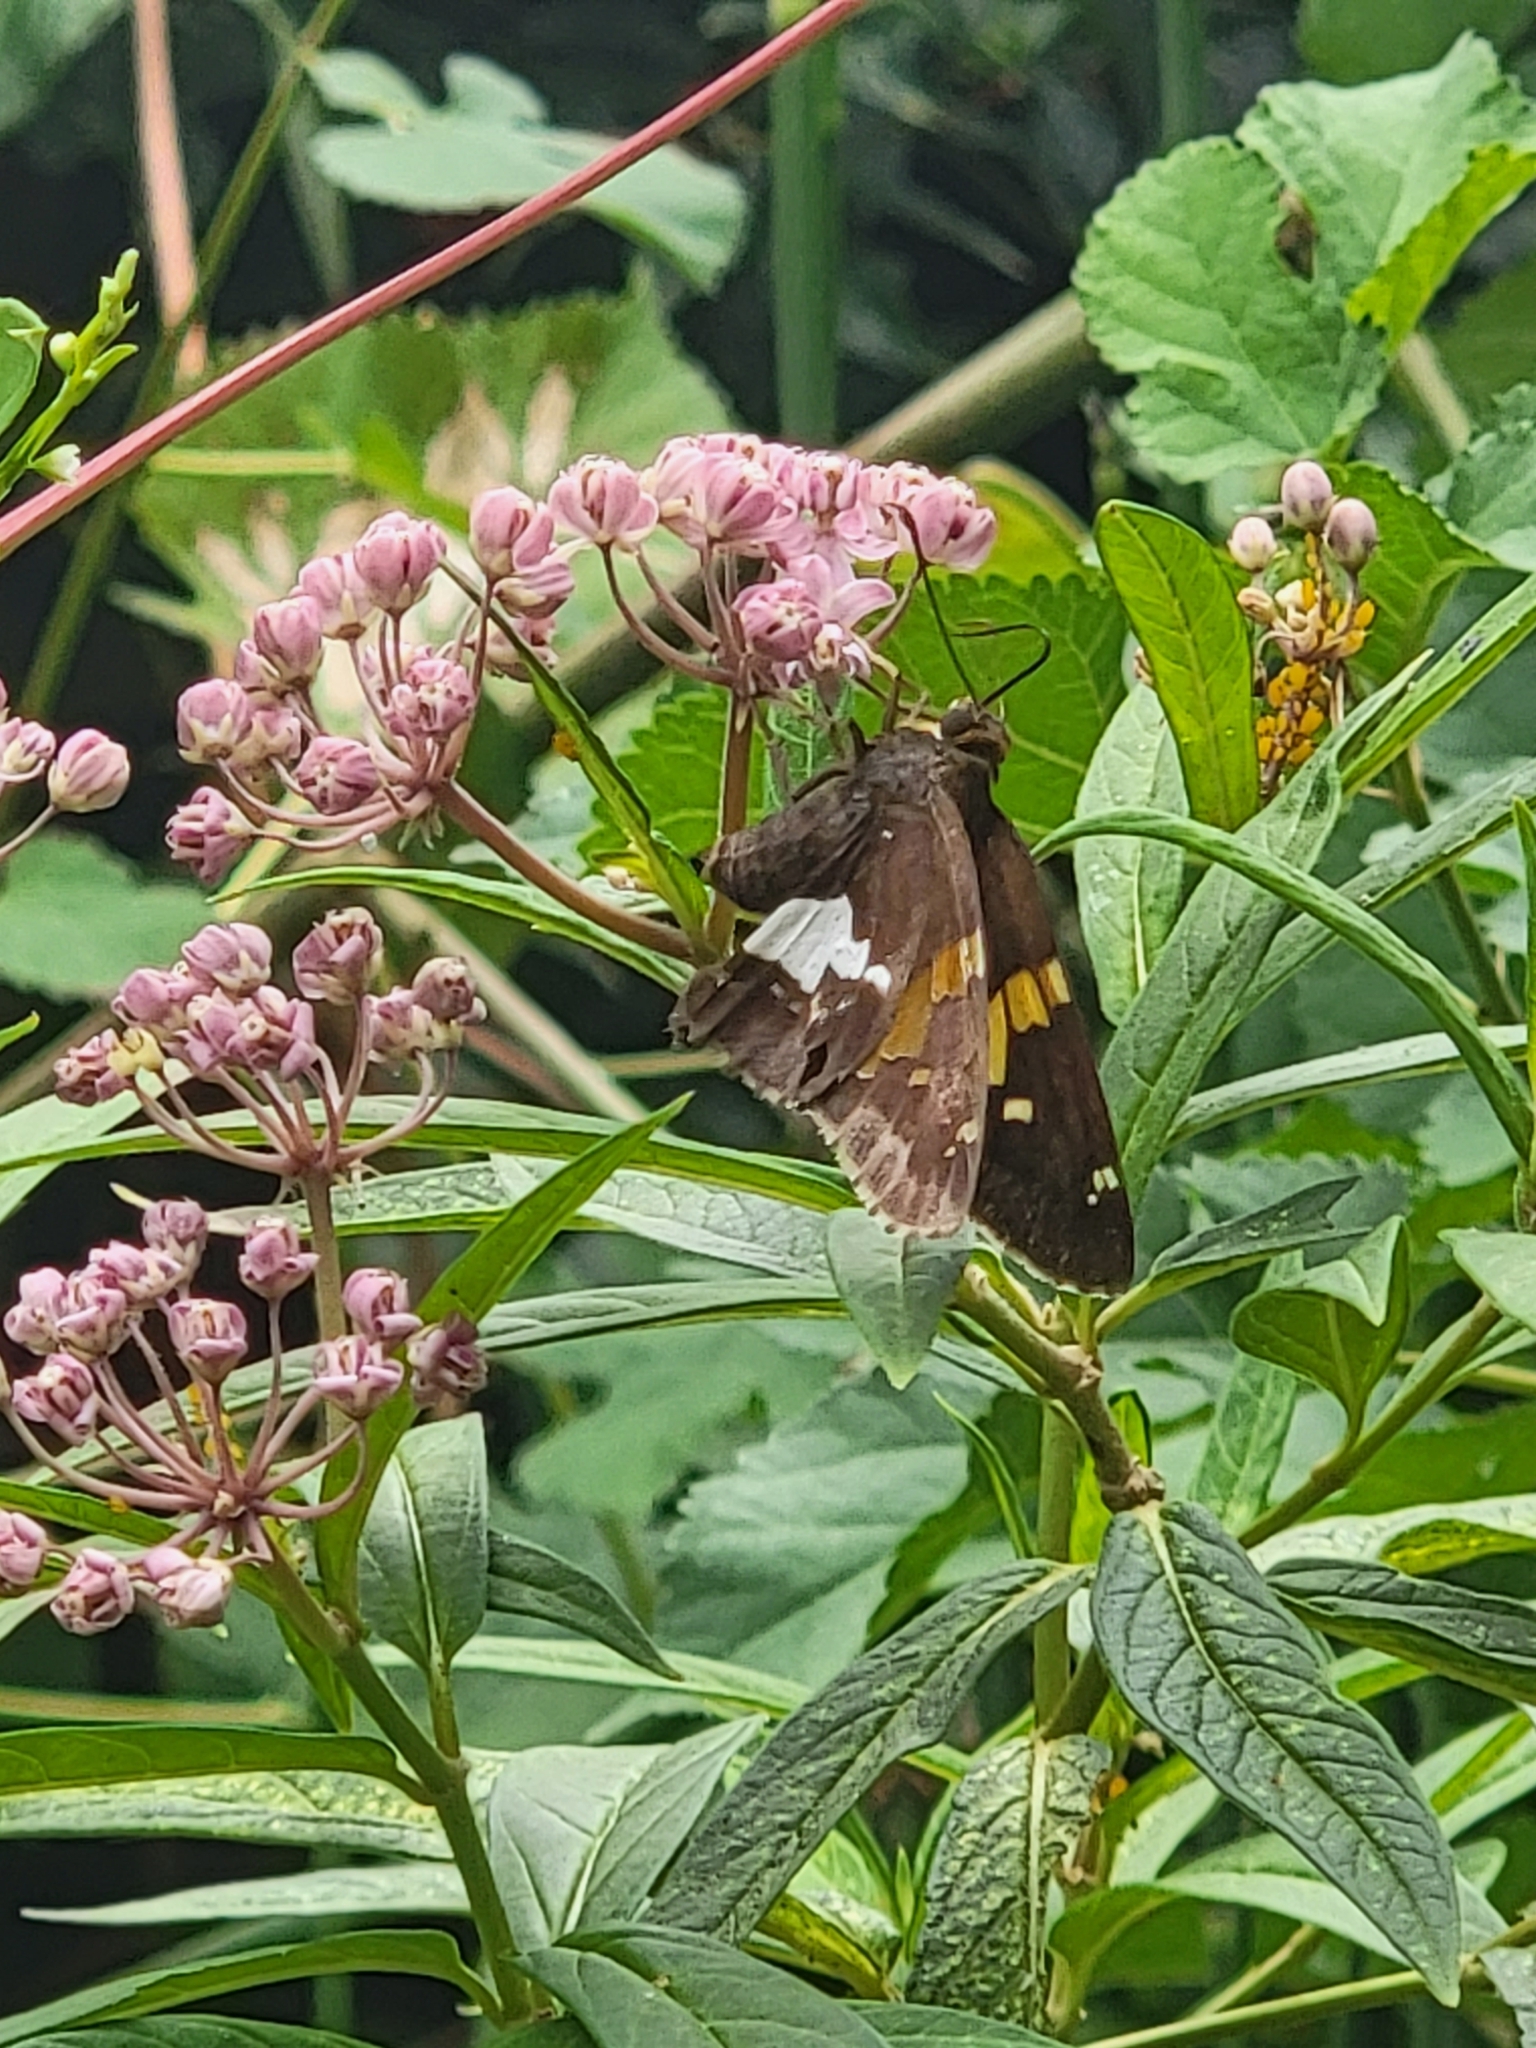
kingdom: Animalia
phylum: Arthropoda
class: Insecta
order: Lepidoptera
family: Hesperiidae
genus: Epargyreus
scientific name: Epargyreus clarus
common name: Silver-spotted skipper
